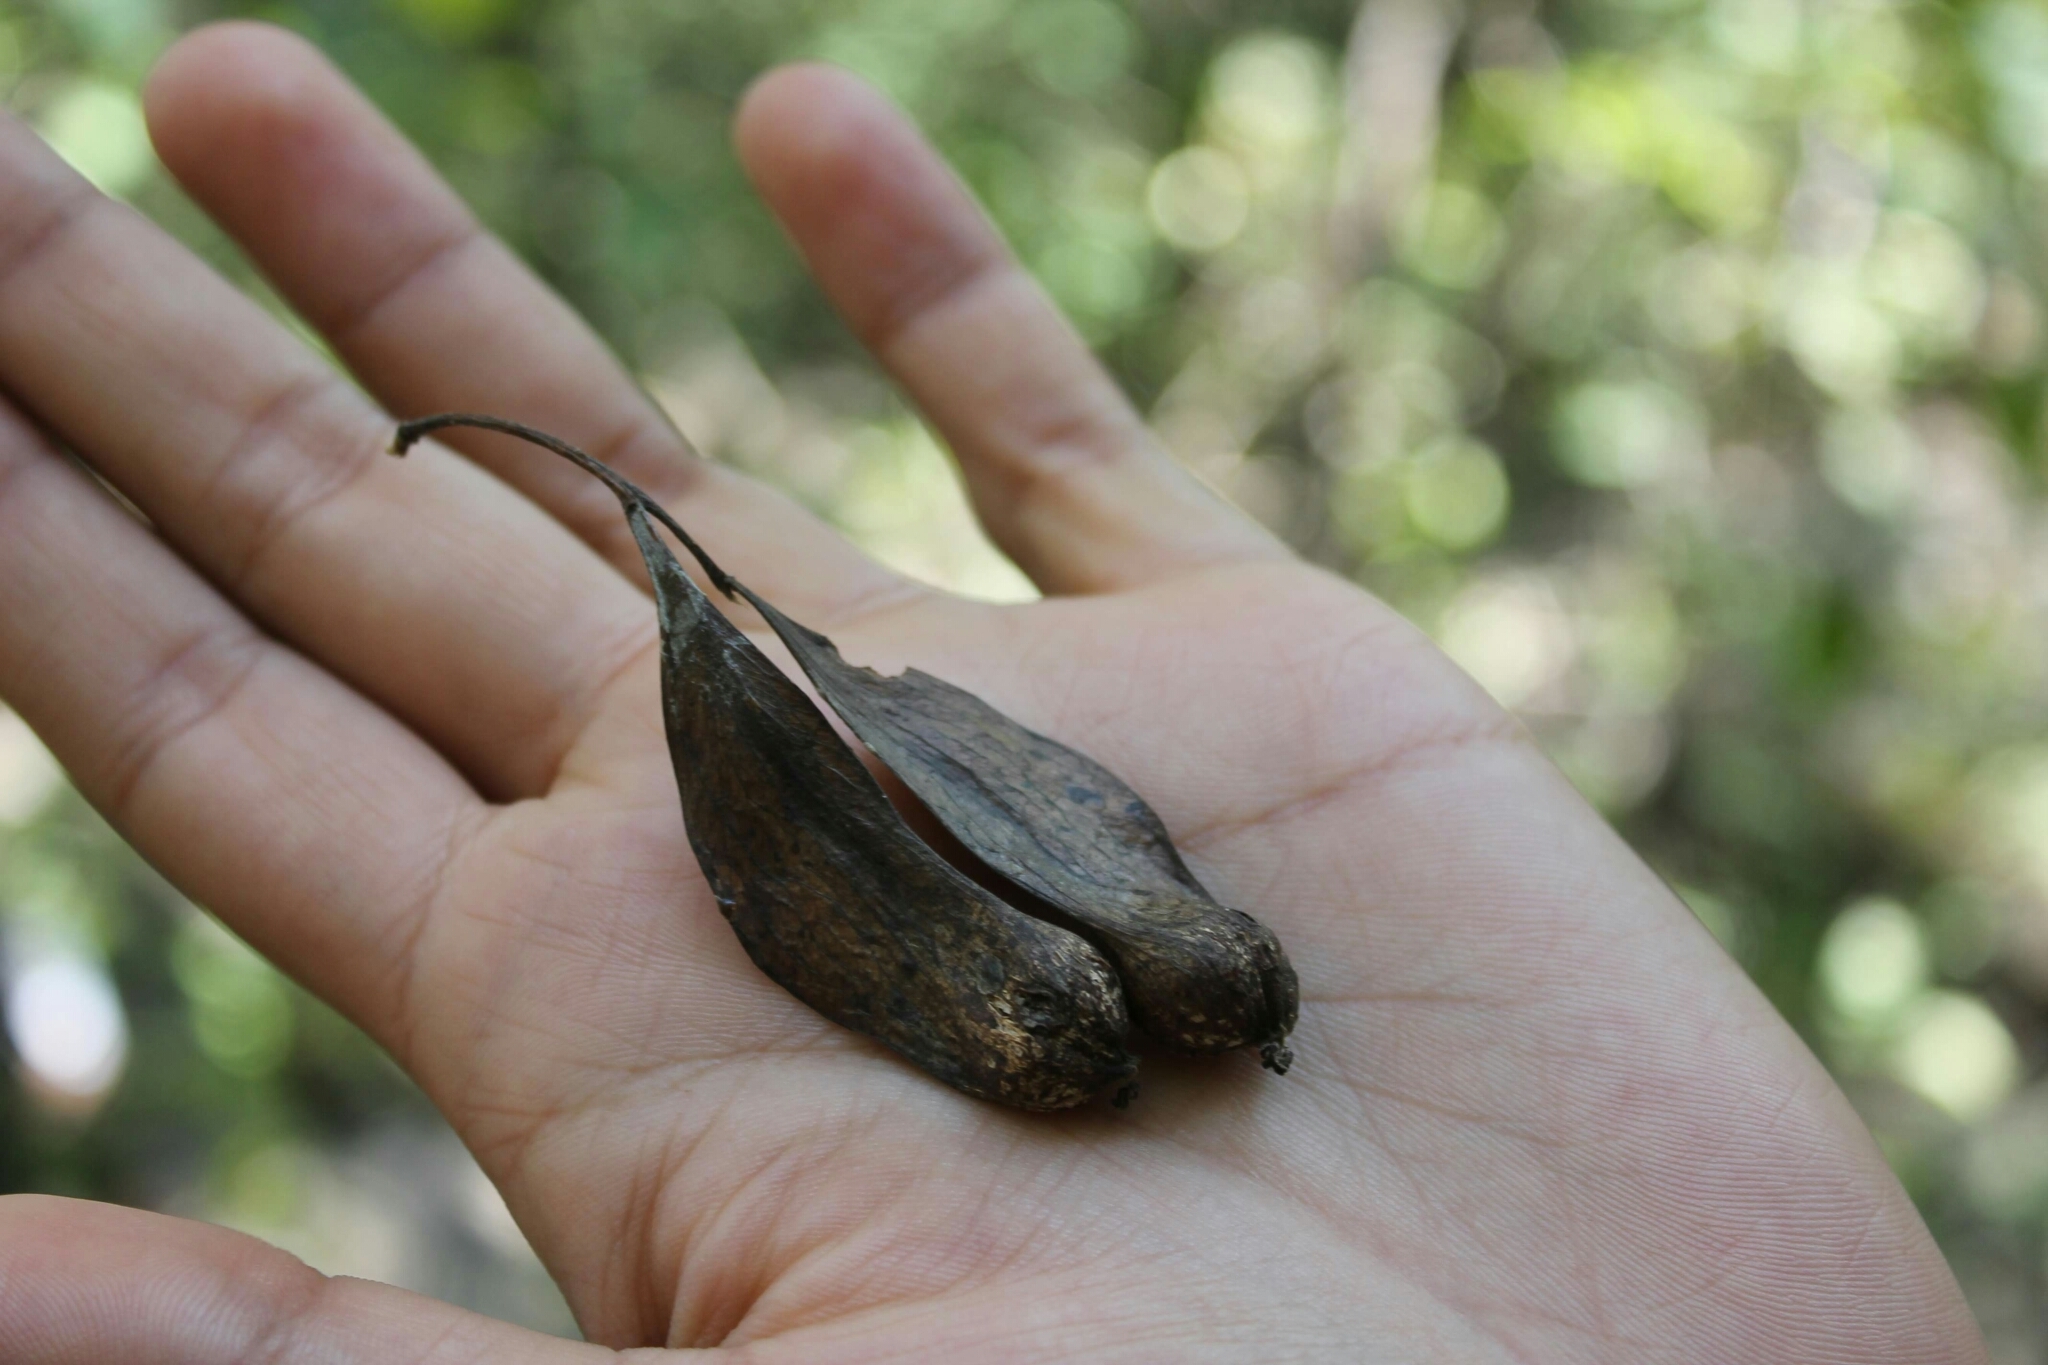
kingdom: Plantae
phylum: Tracheophyta
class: Magnoliopsida
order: Sapindales
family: Anacardiaceae
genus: Amphipterygium
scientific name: Amphipterygium adstringens
